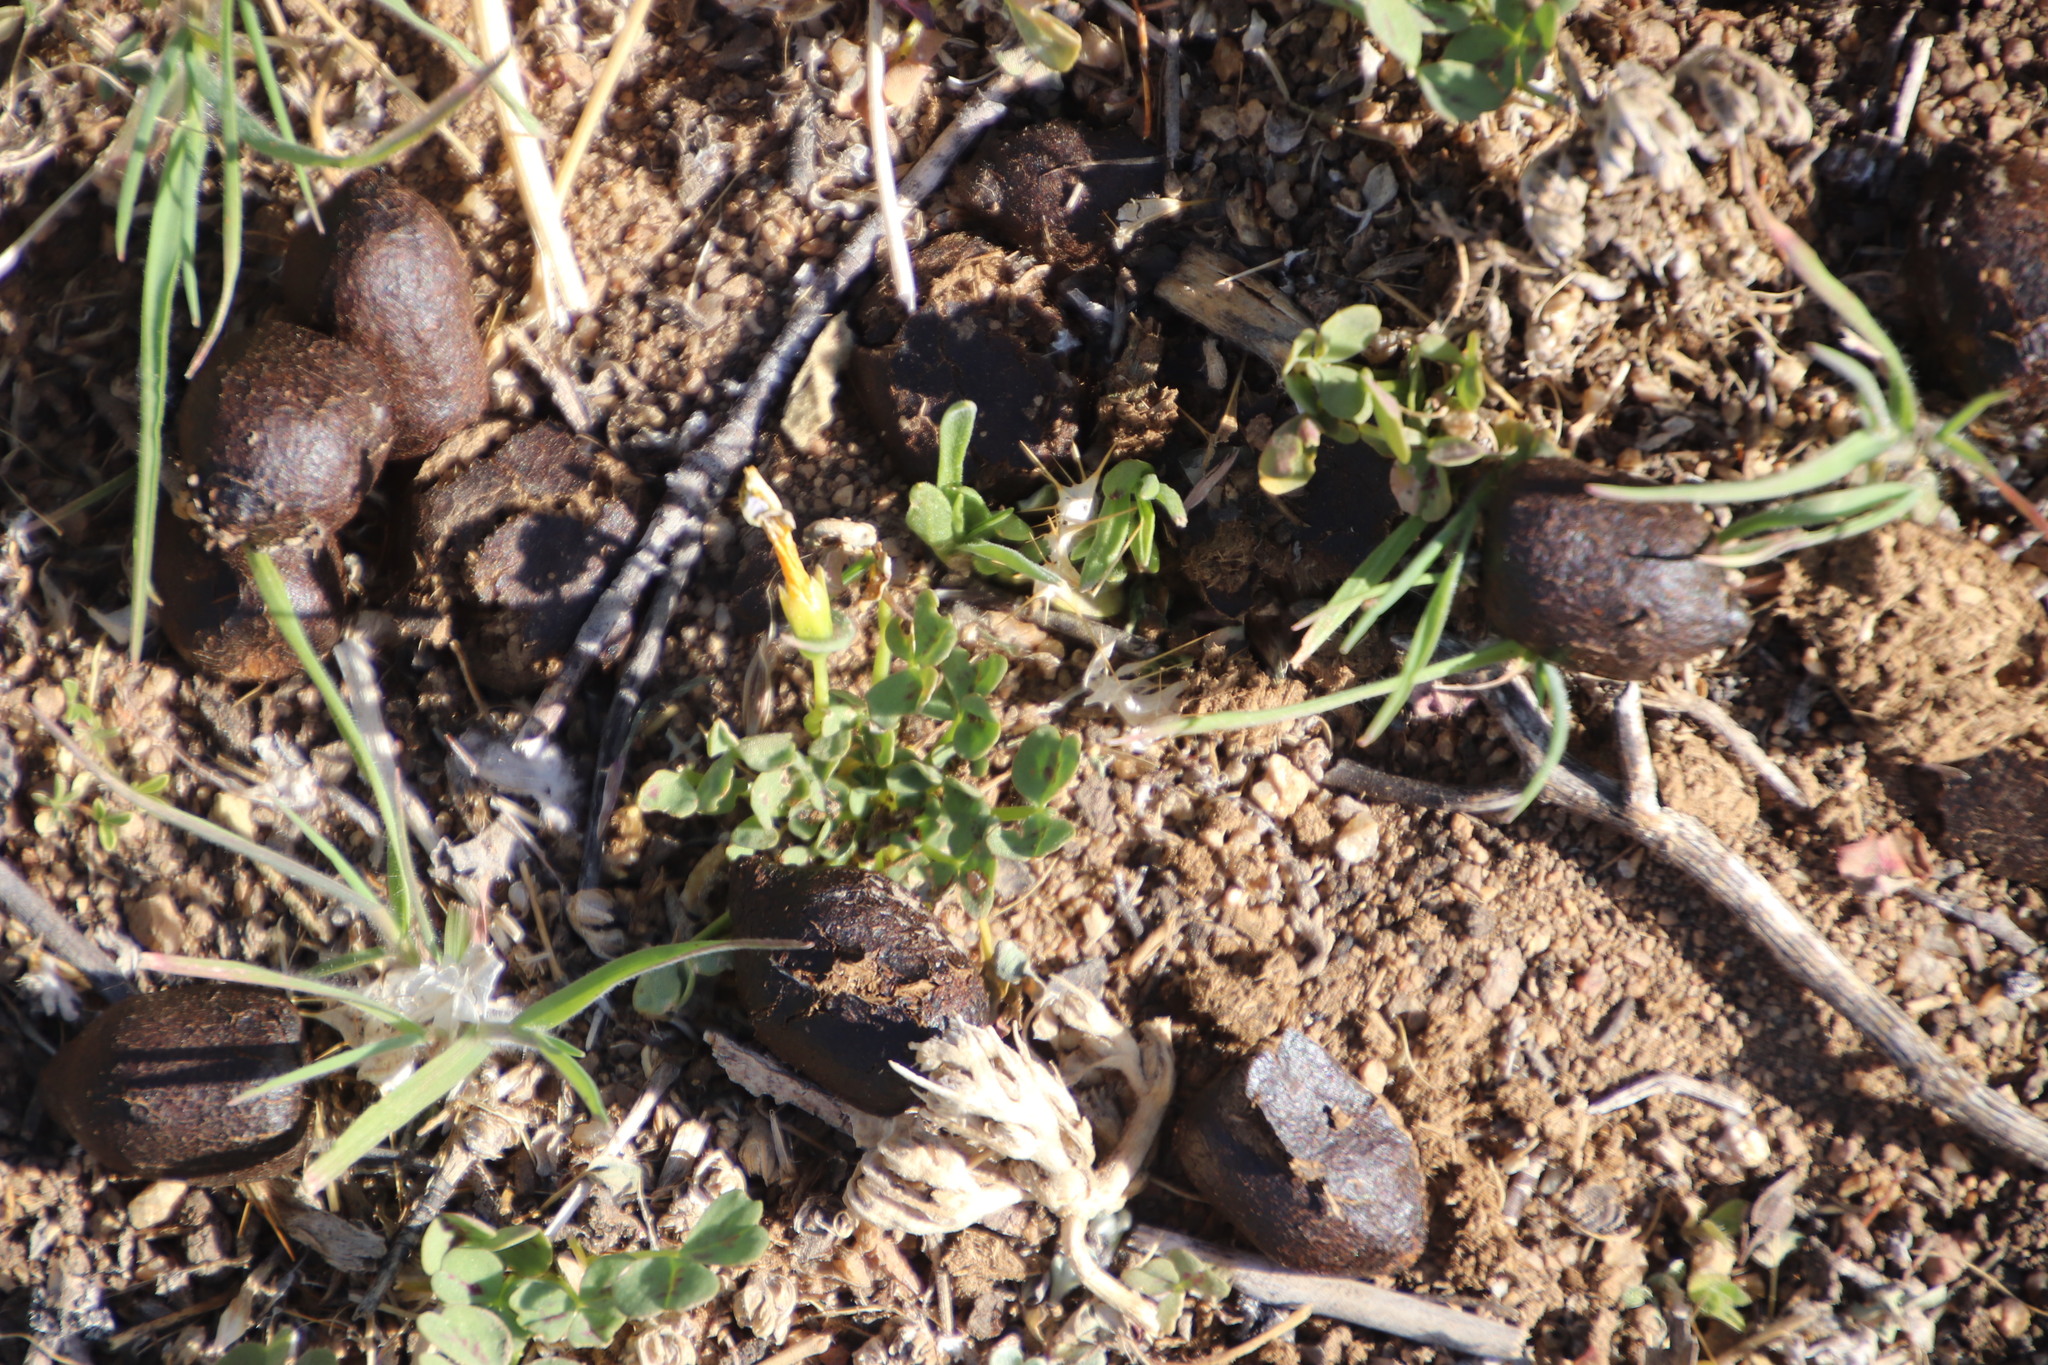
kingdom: Plantae
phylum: Tracheophyta
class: Magnoliopsida
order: Oxalidales
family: Oxalidaceae
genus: Oxalis
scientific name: Oxalis obtusa
